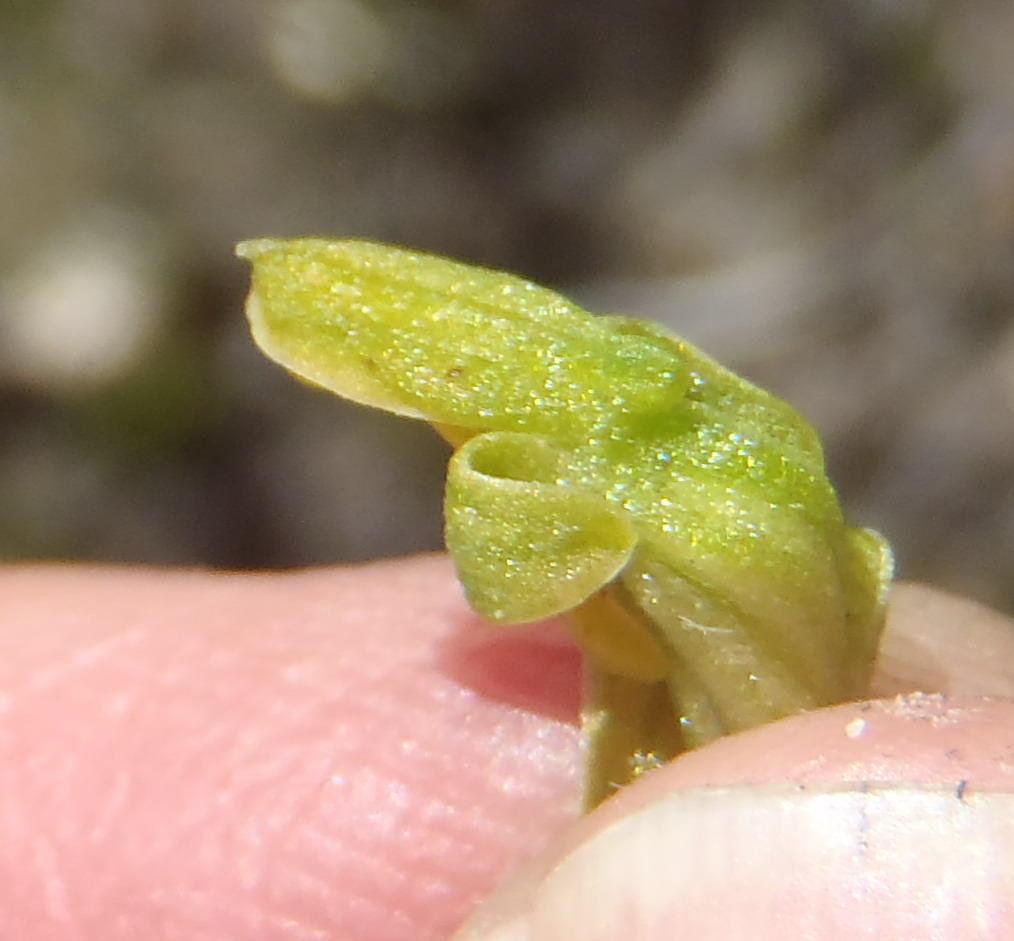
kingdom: Plantae
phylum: Tracheophyta
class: Liliopsida
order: Asparagales
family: Orchidaceae
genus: Disa
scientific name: Disa cylindrica
